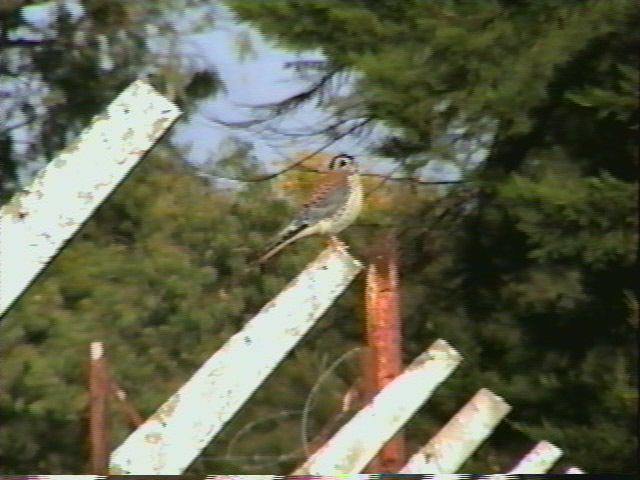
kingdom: Animalia
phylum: Chordata
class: Aves
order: Falconiformes
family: Falconidae
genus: Falco
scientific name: Falco sparverius
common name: American kestrel
